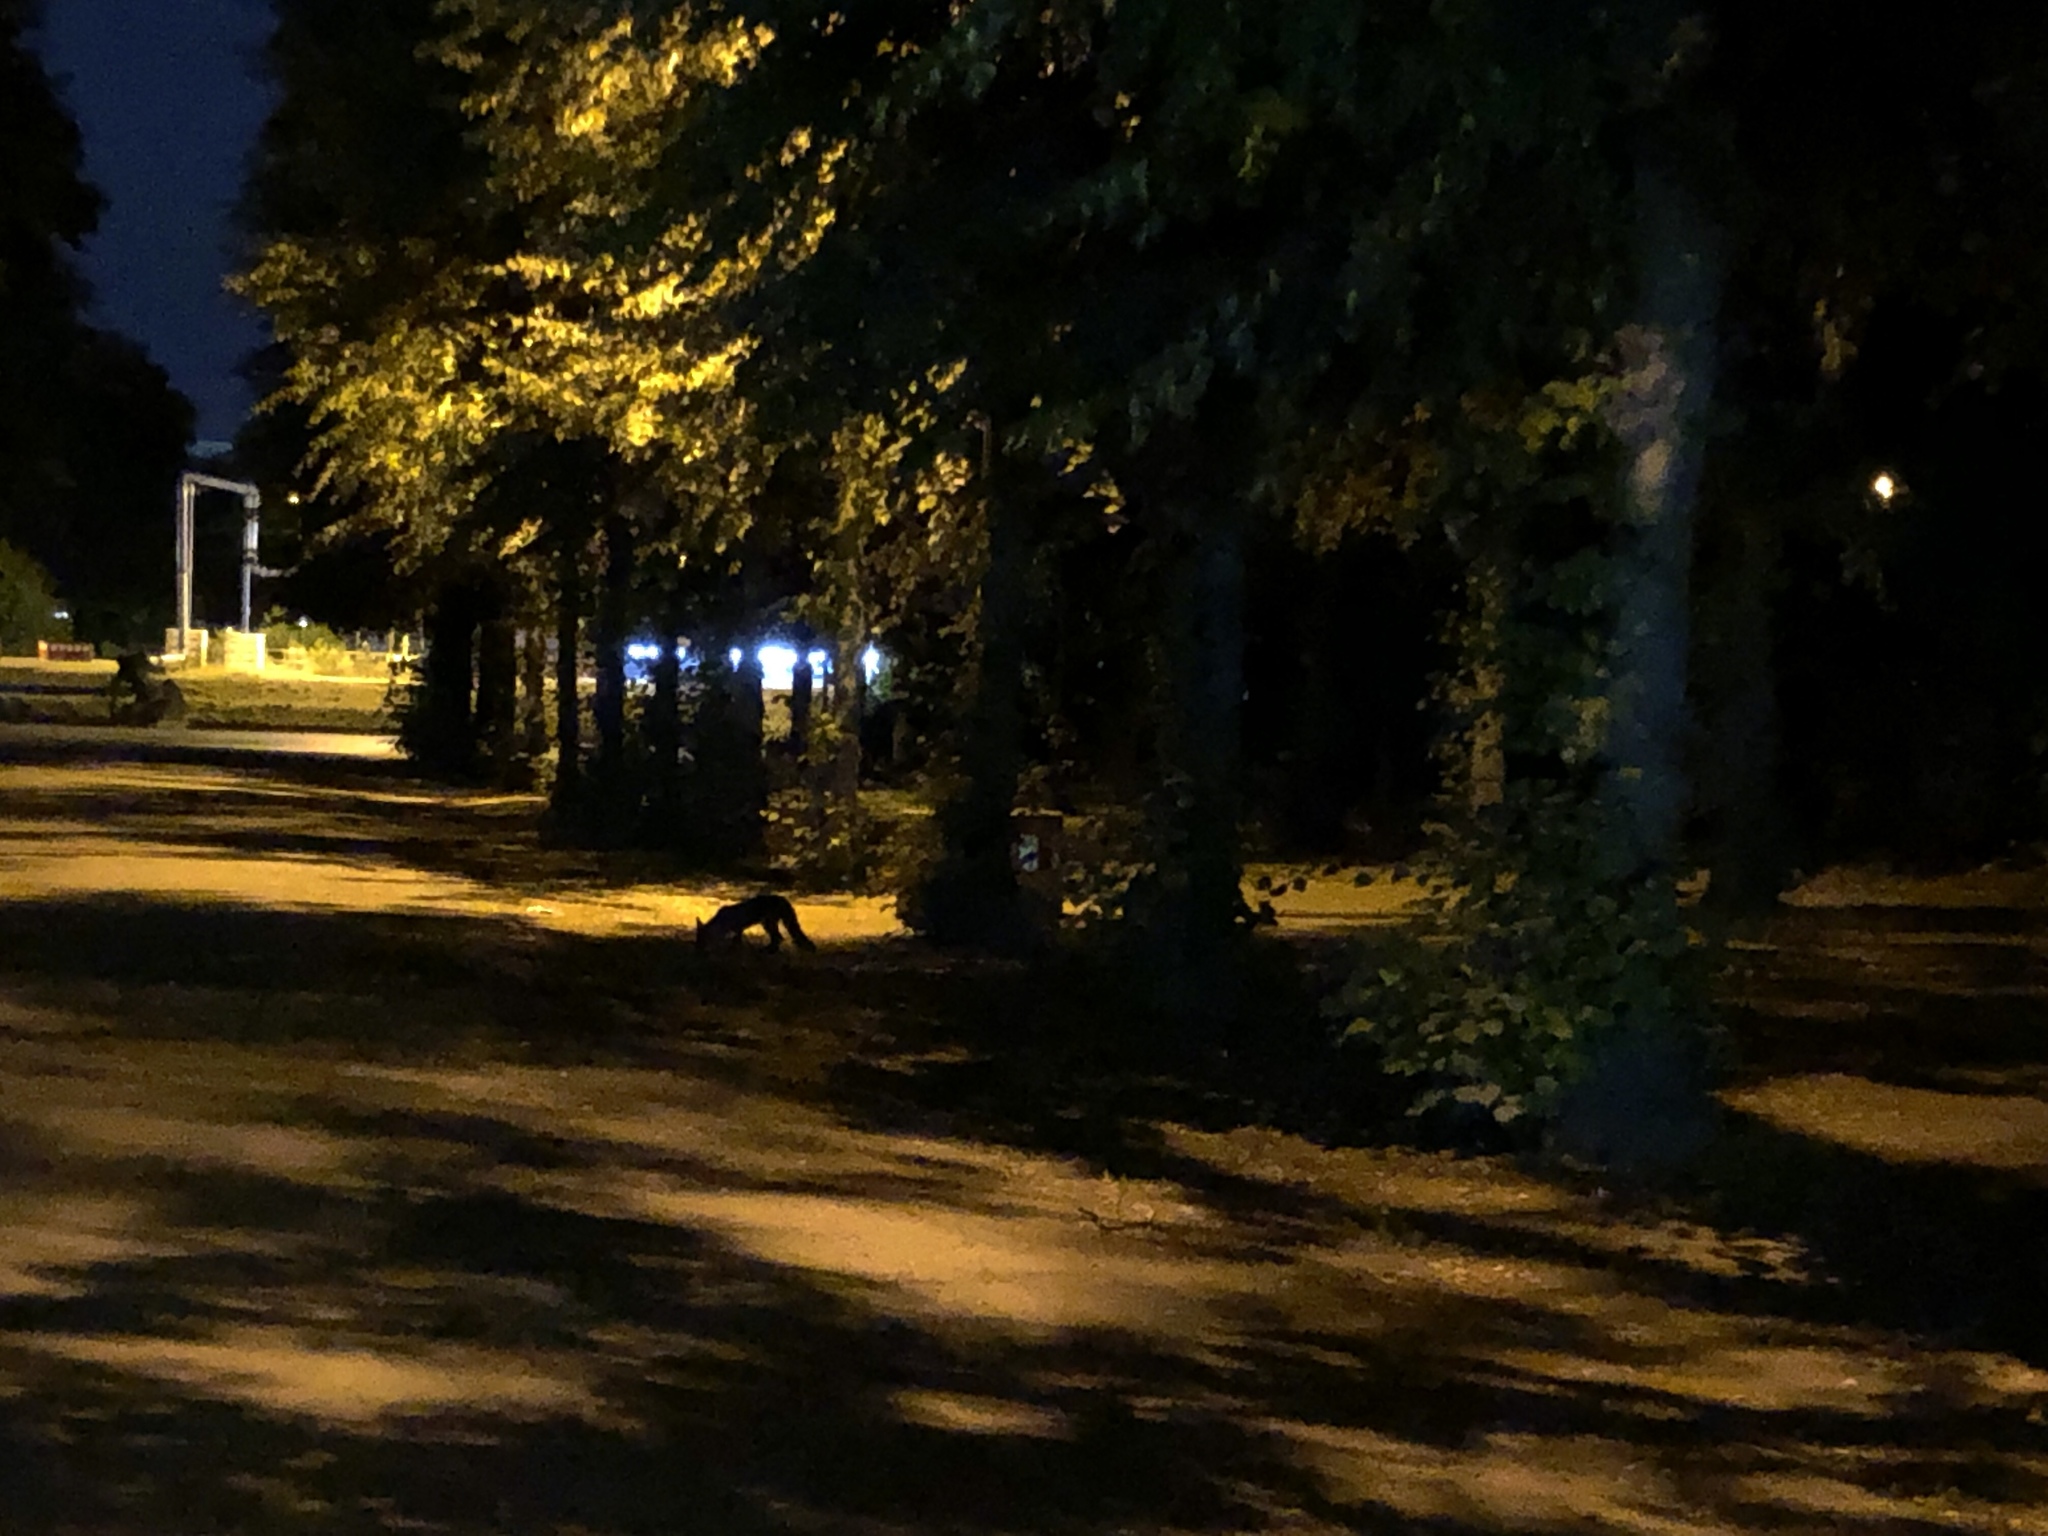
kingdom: Animalia
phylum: Chordata
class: Mammalia
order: Carnivora
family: Canidae
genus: Vulpes
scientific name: Vulpes vulpes
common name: Red fox
